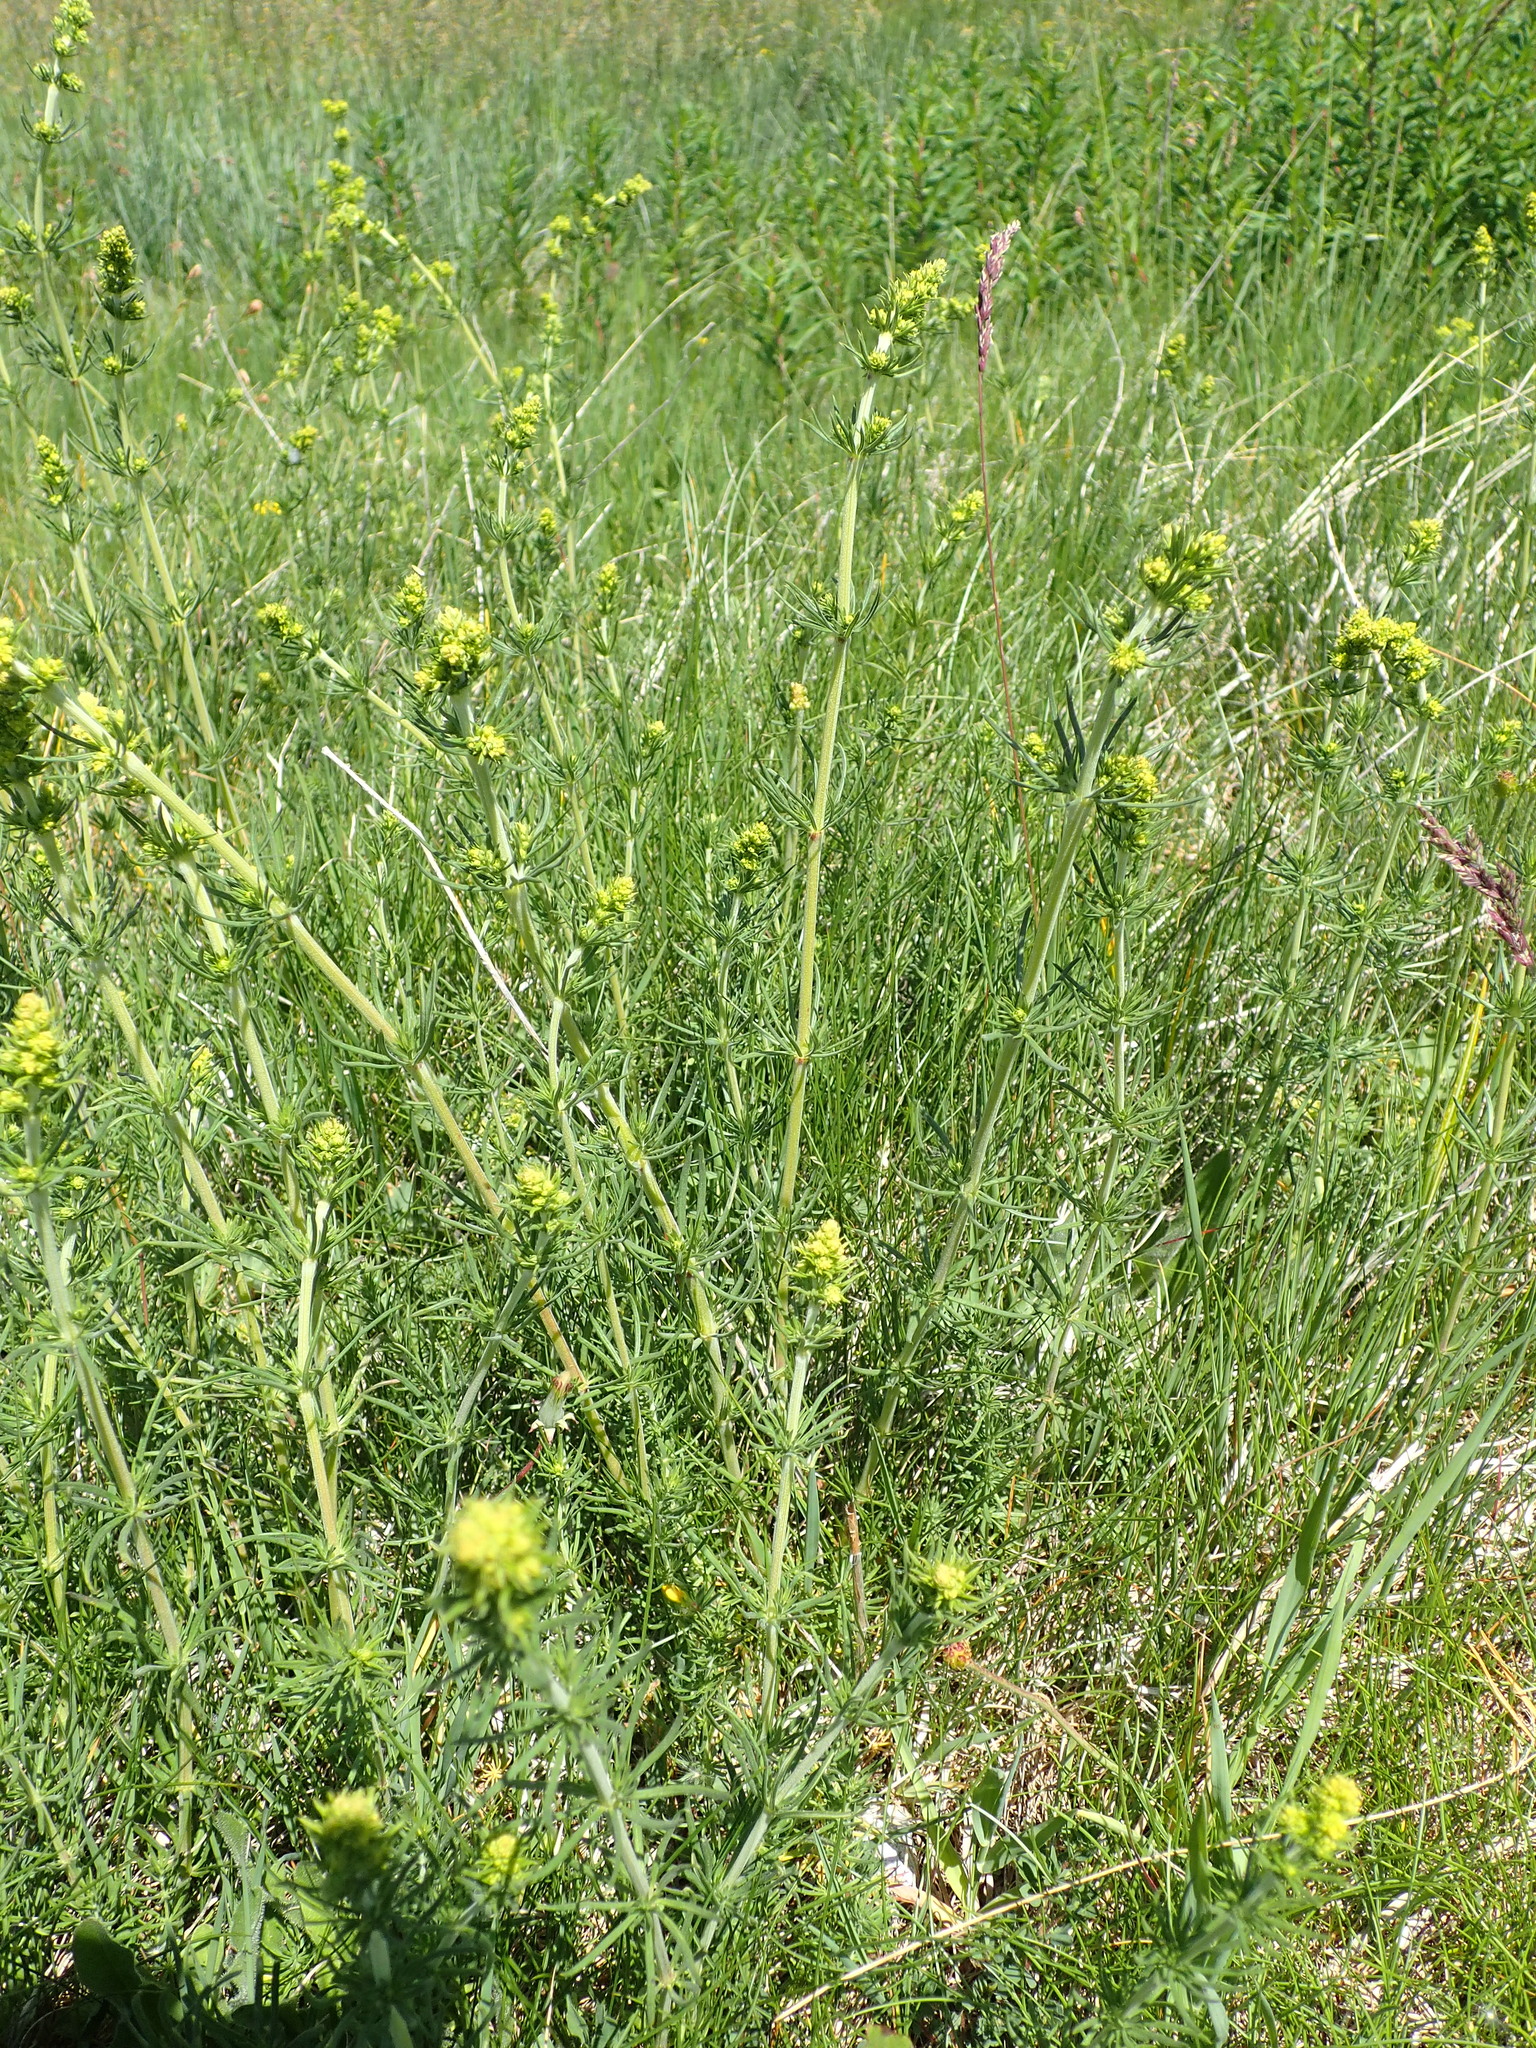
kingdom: Plantae
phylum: Tracheophyta
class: Magnoliopsida
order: Gentianales
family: Rubiaceae
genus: Galium
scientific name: Galium verum
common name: Lady's bedstraw
